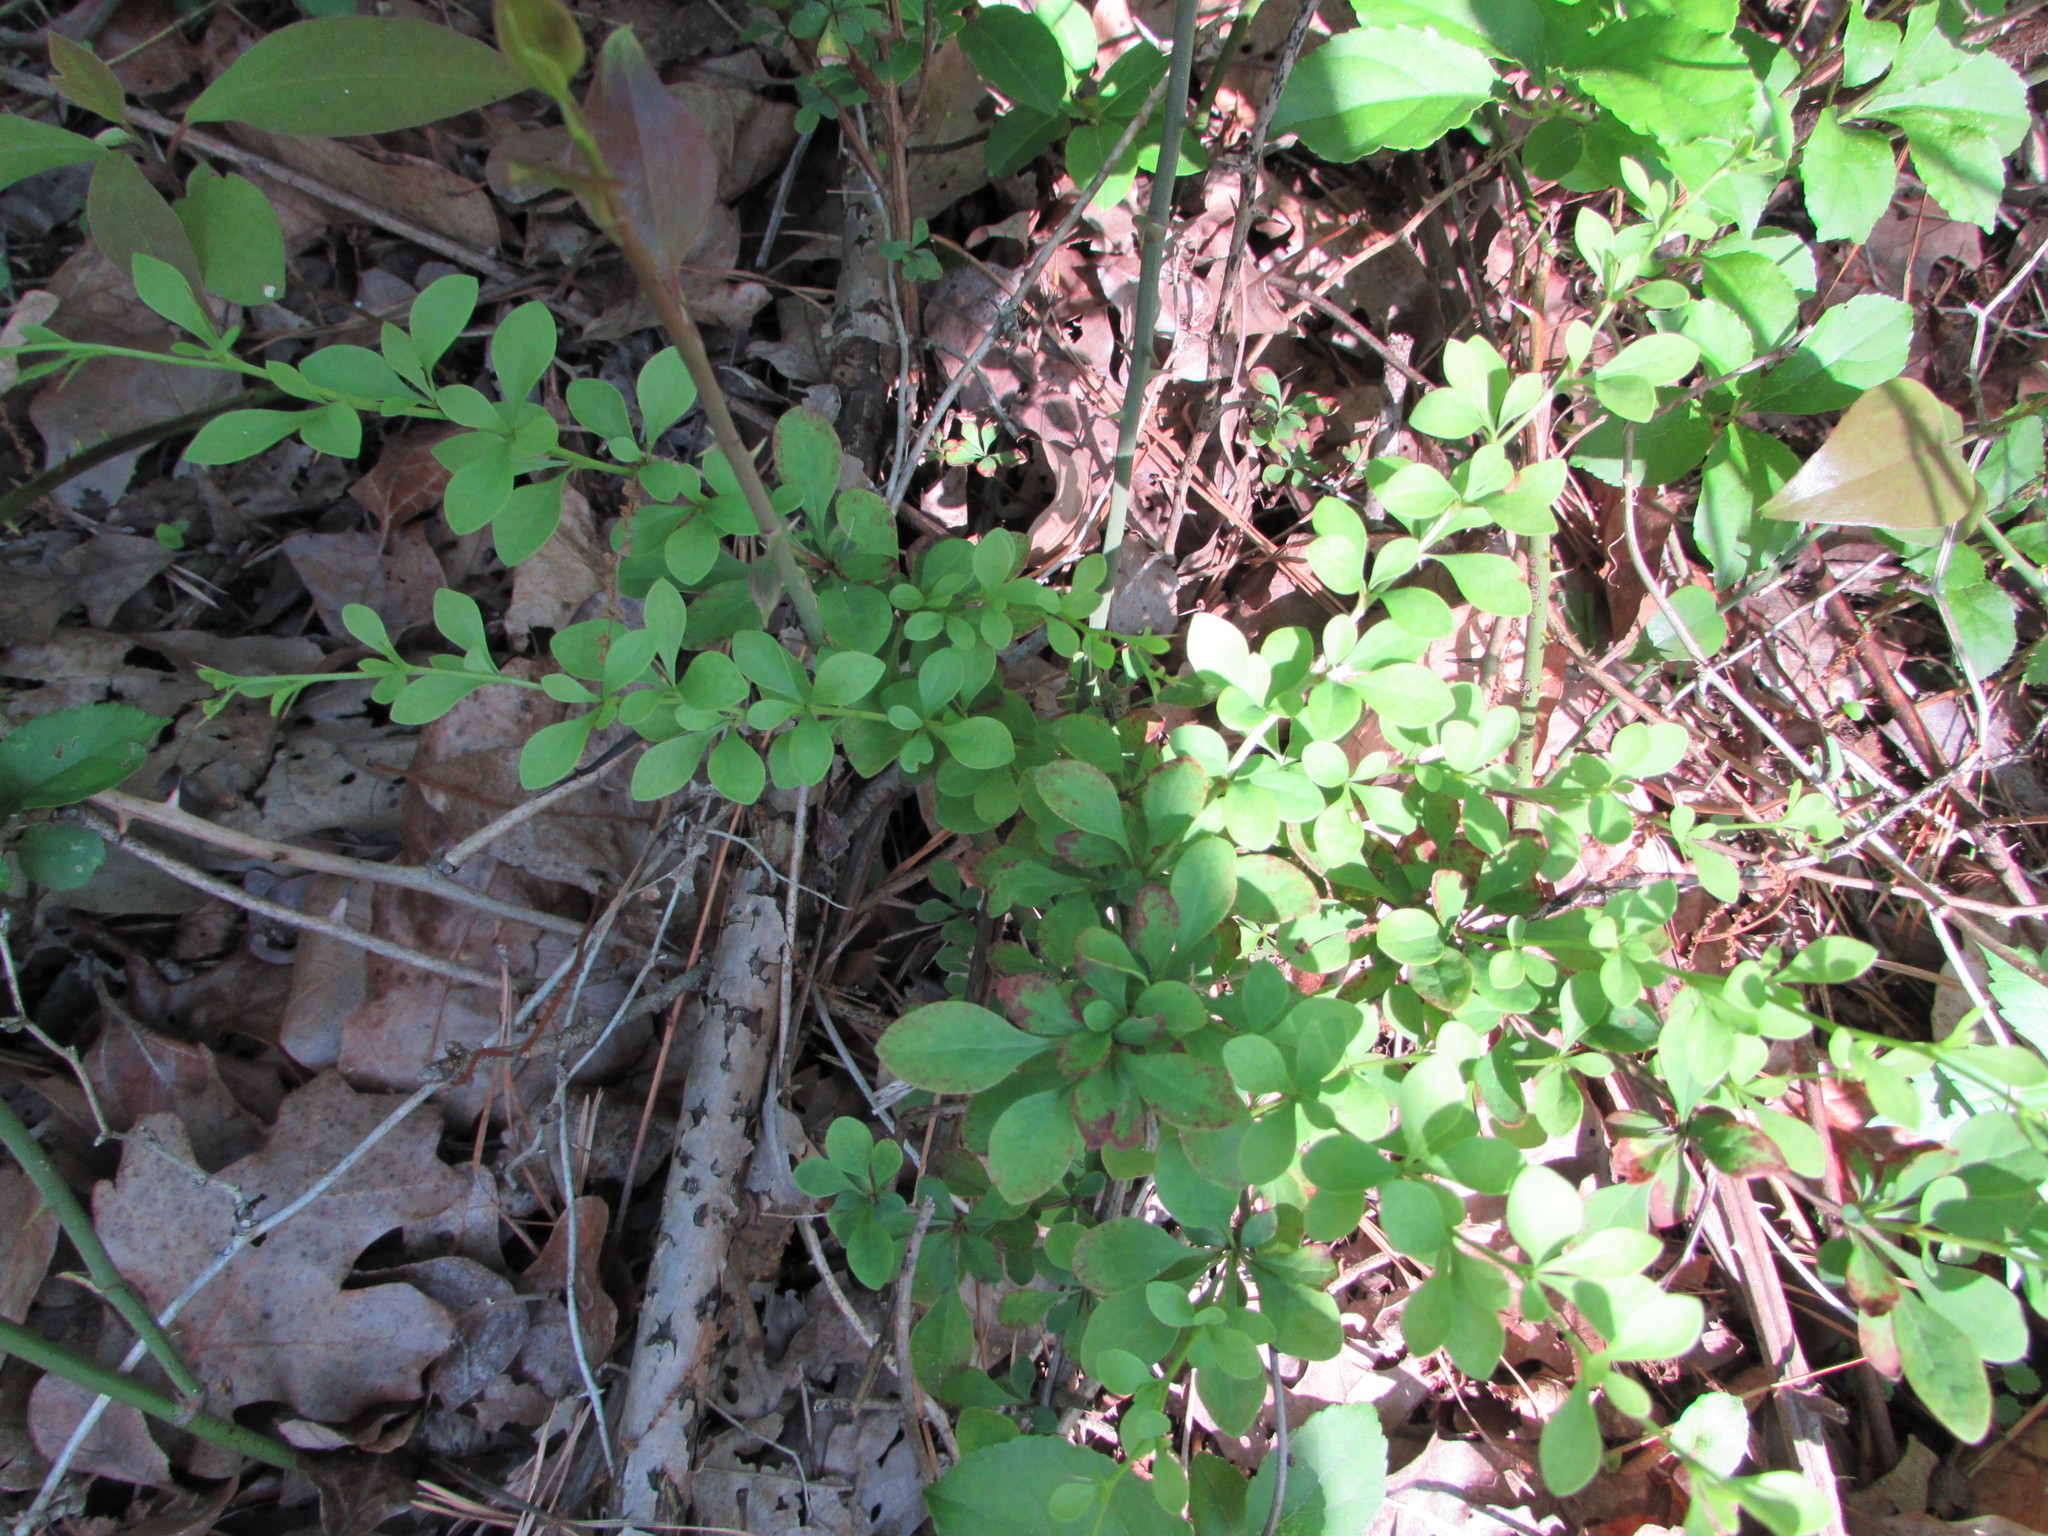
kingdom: Plantae
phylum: Tracheophyta
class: Magnoliopsida
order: Ranunculales
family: Berberidaceae
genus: Berberis
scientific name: Berberis thunbergii
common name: Japanese barberry
